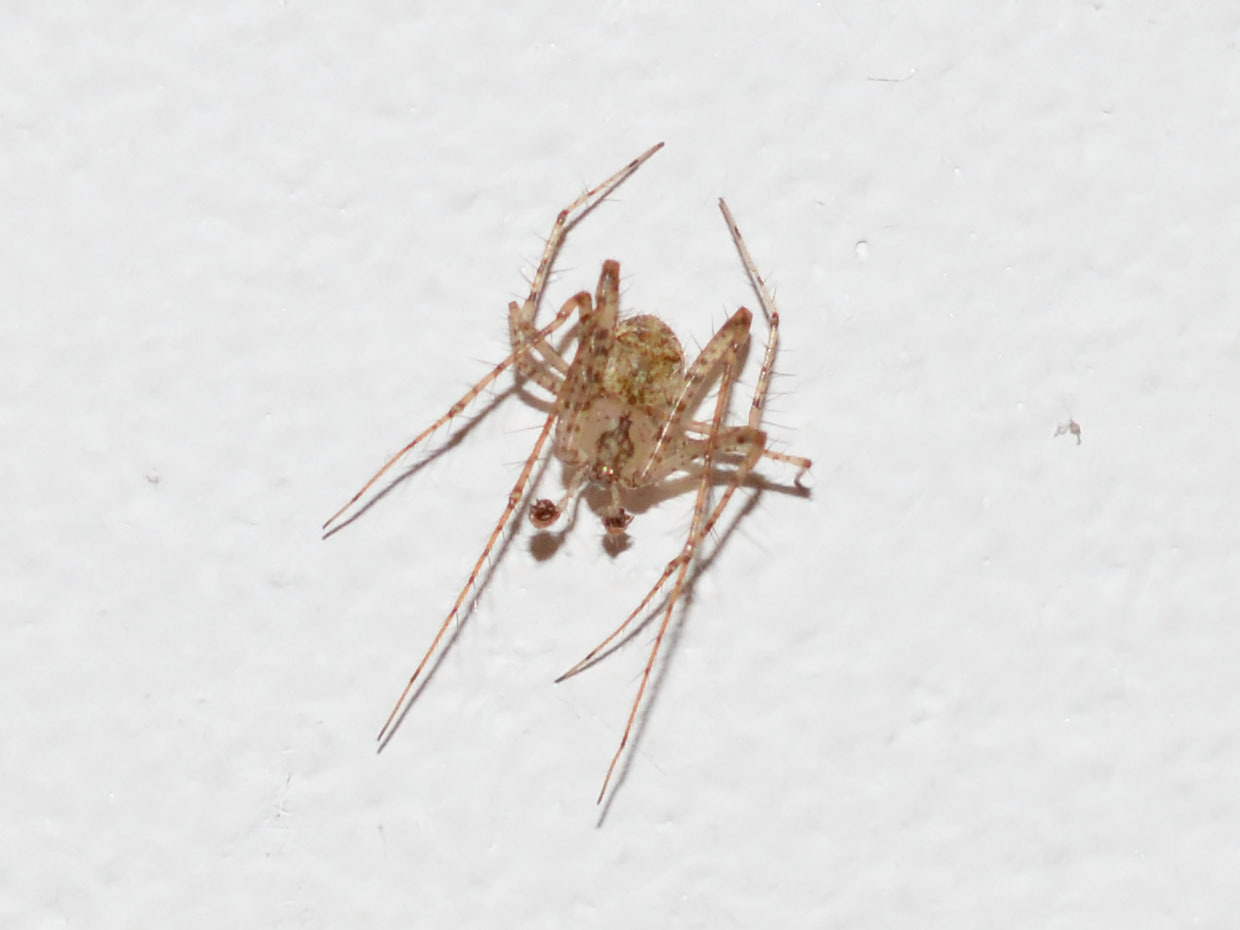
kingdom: Animalia
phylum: Arthropoda
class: Arachnida
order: Araneae
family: Mimetidae
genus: Mimetus
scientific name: Mimetus laevigatus
